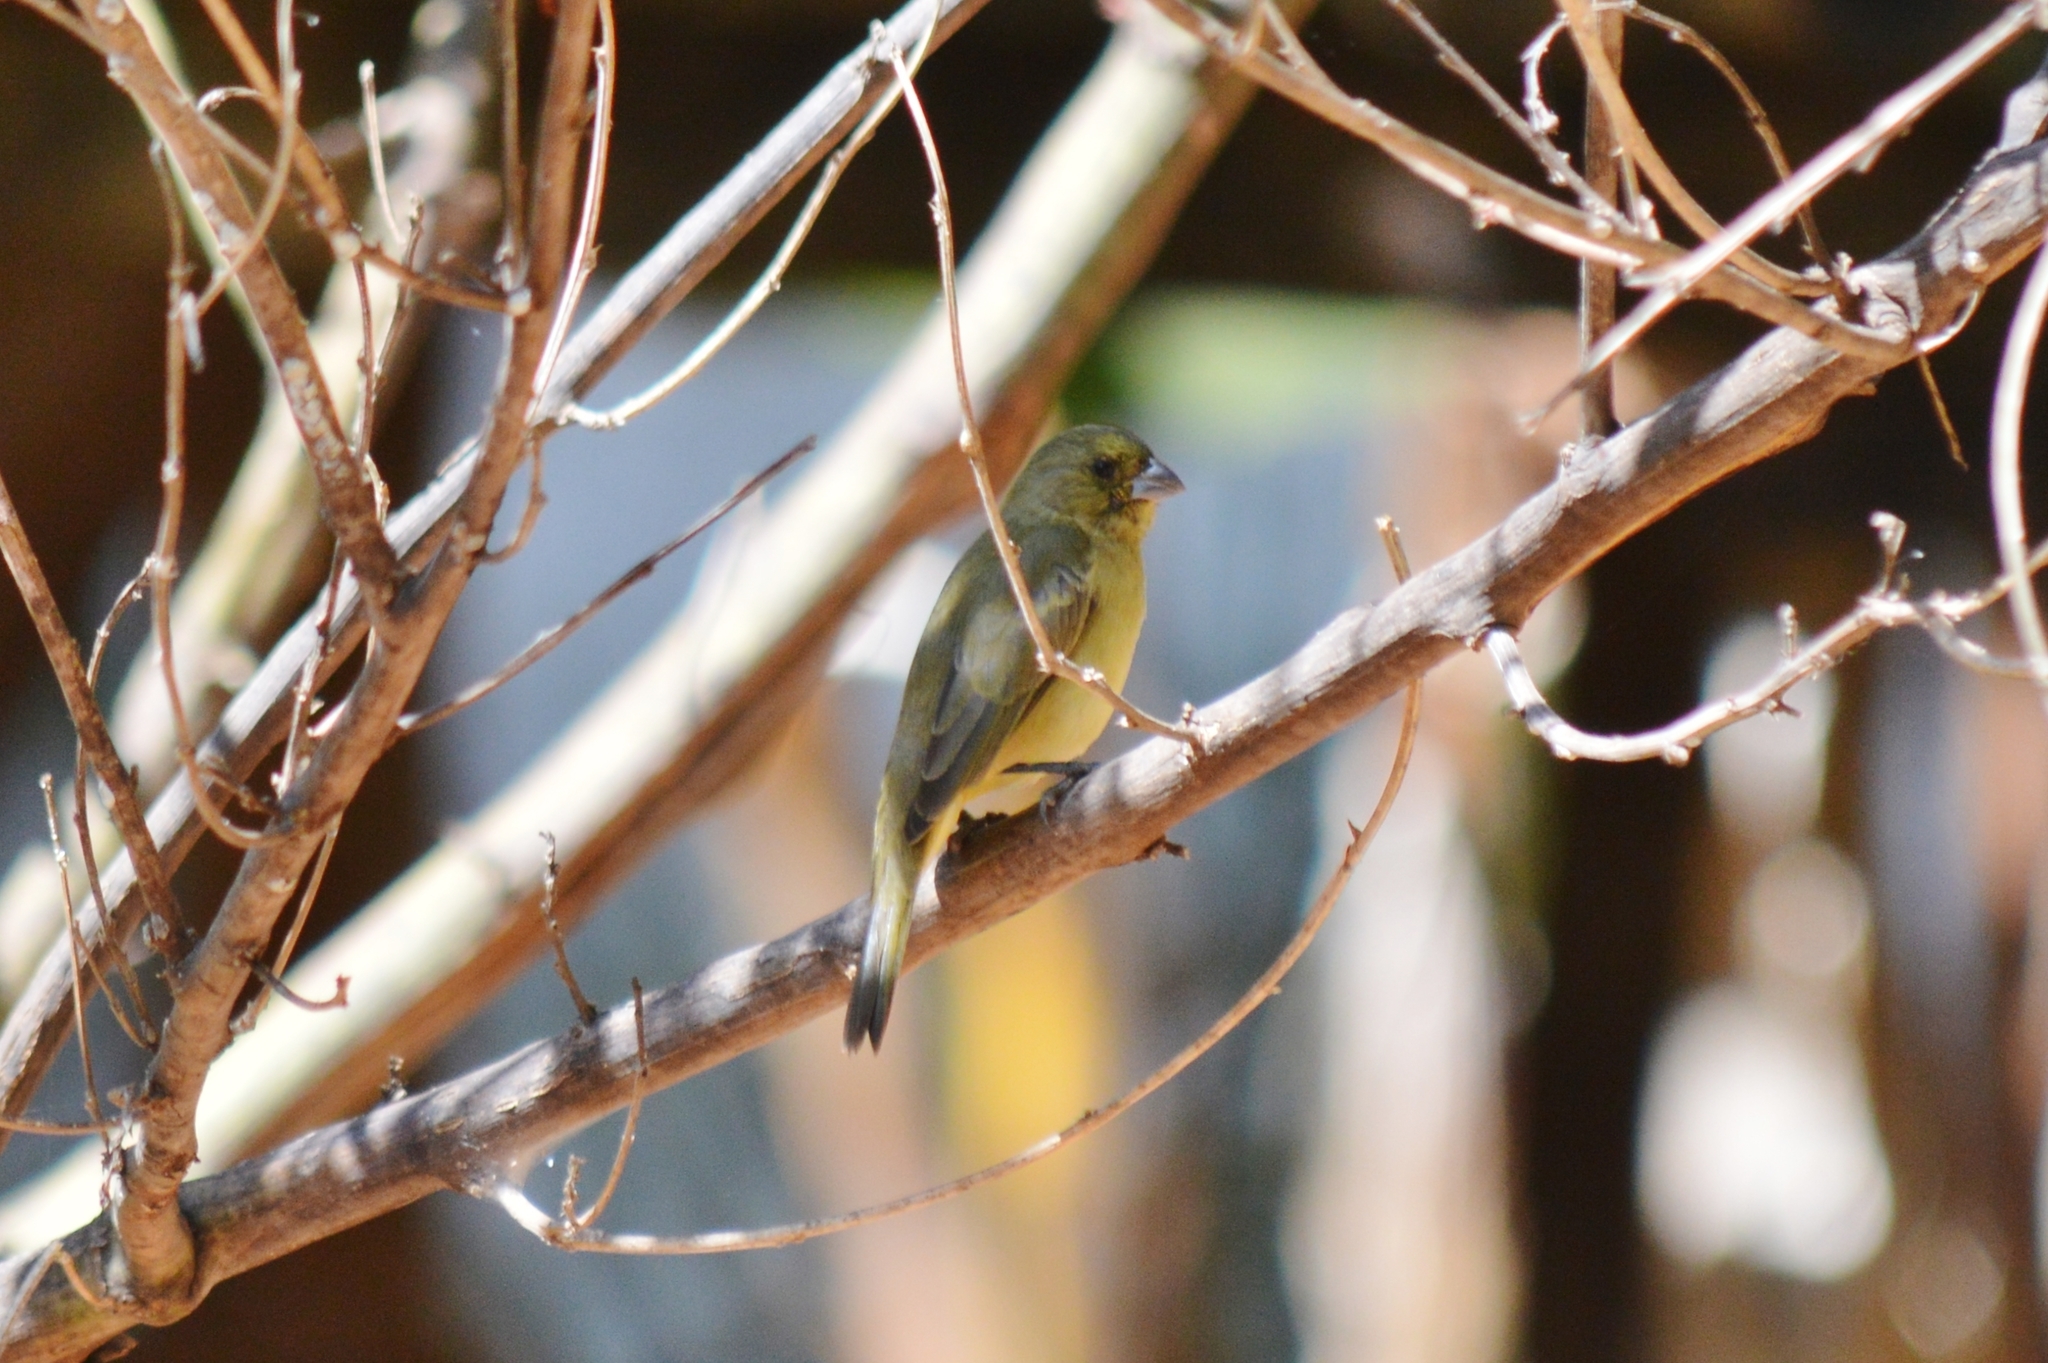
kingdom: Animalia
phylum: Chordata
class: Aves
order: Passeriformes
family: Thraupidae
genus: Sporophila
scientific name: Sporophila
